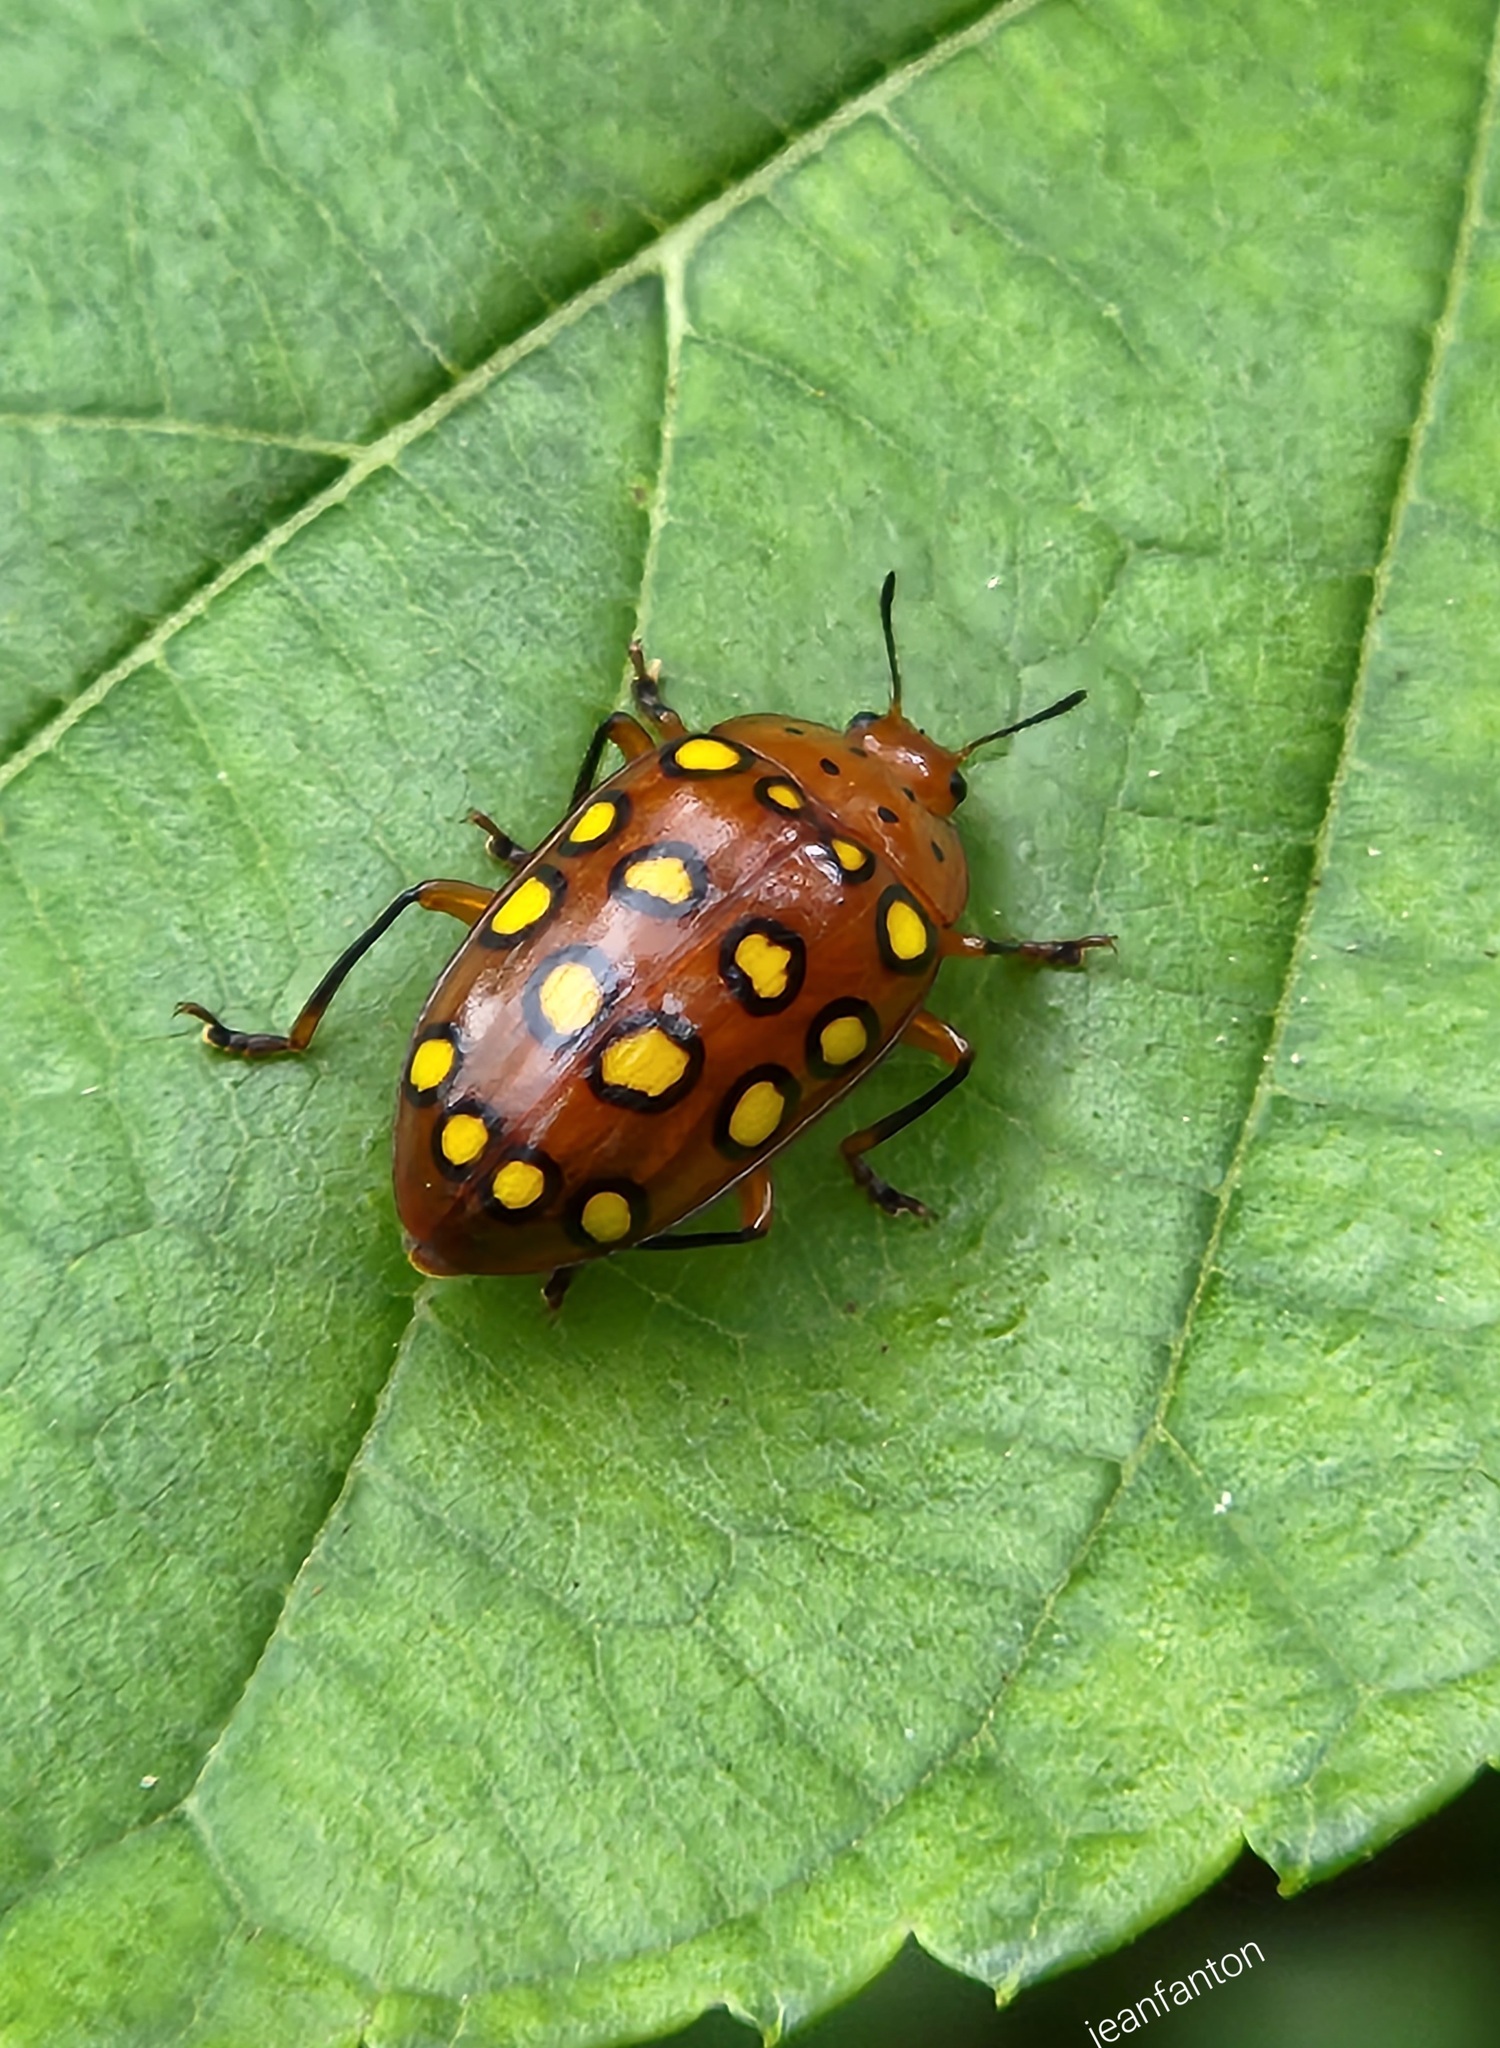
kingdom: Animalia
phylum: Arthropoda
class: Insecta
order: Coleoptera
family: Erotylidae
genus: Iphiclus
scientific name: Iphiclus
